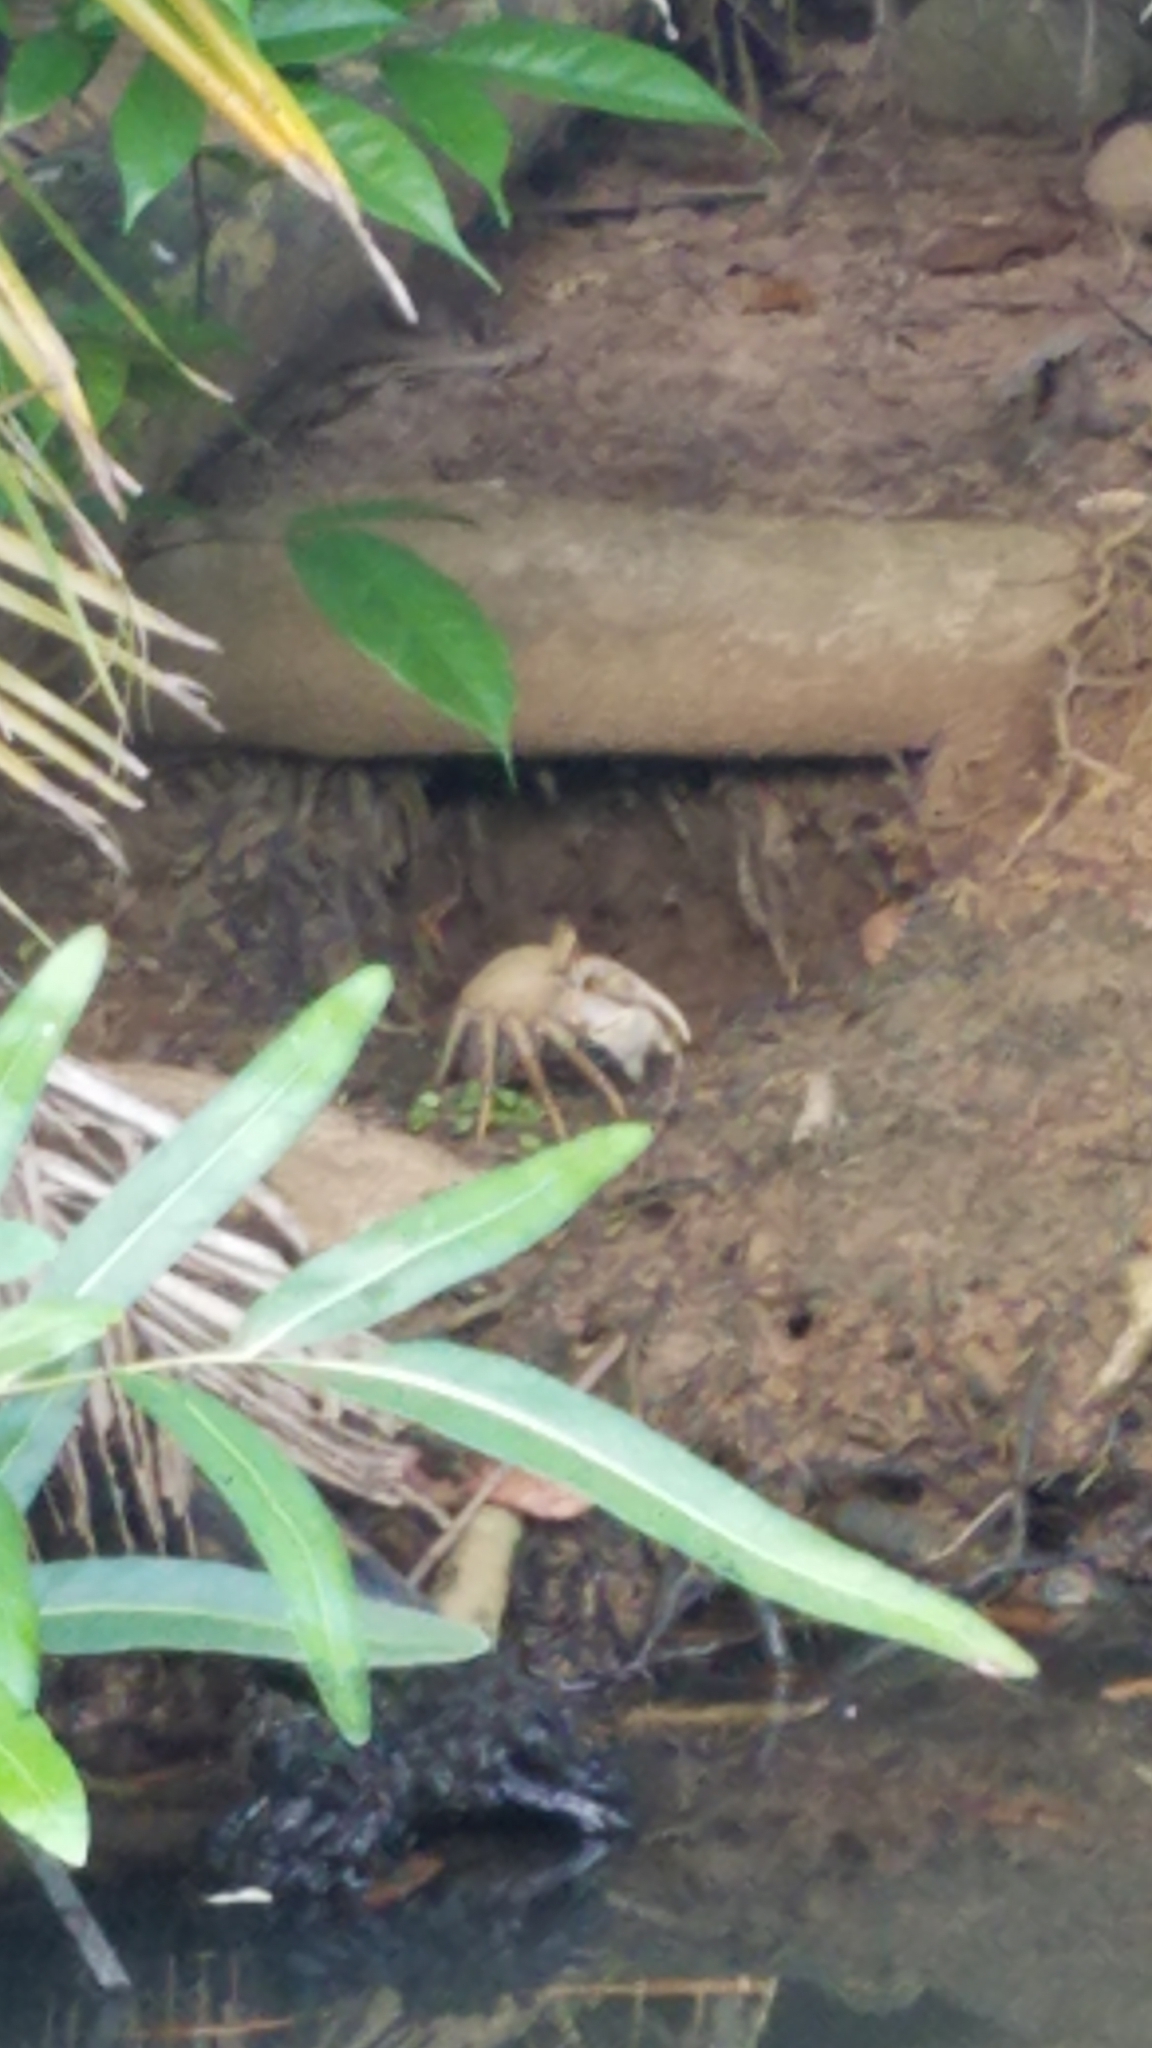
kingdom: Animalia
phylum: Arthropoda
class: Malacostraca
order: Decapoda
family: Gecarcinidae
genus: Cardisoma
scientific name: Cardisoma guanhumi
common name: Great land crab
